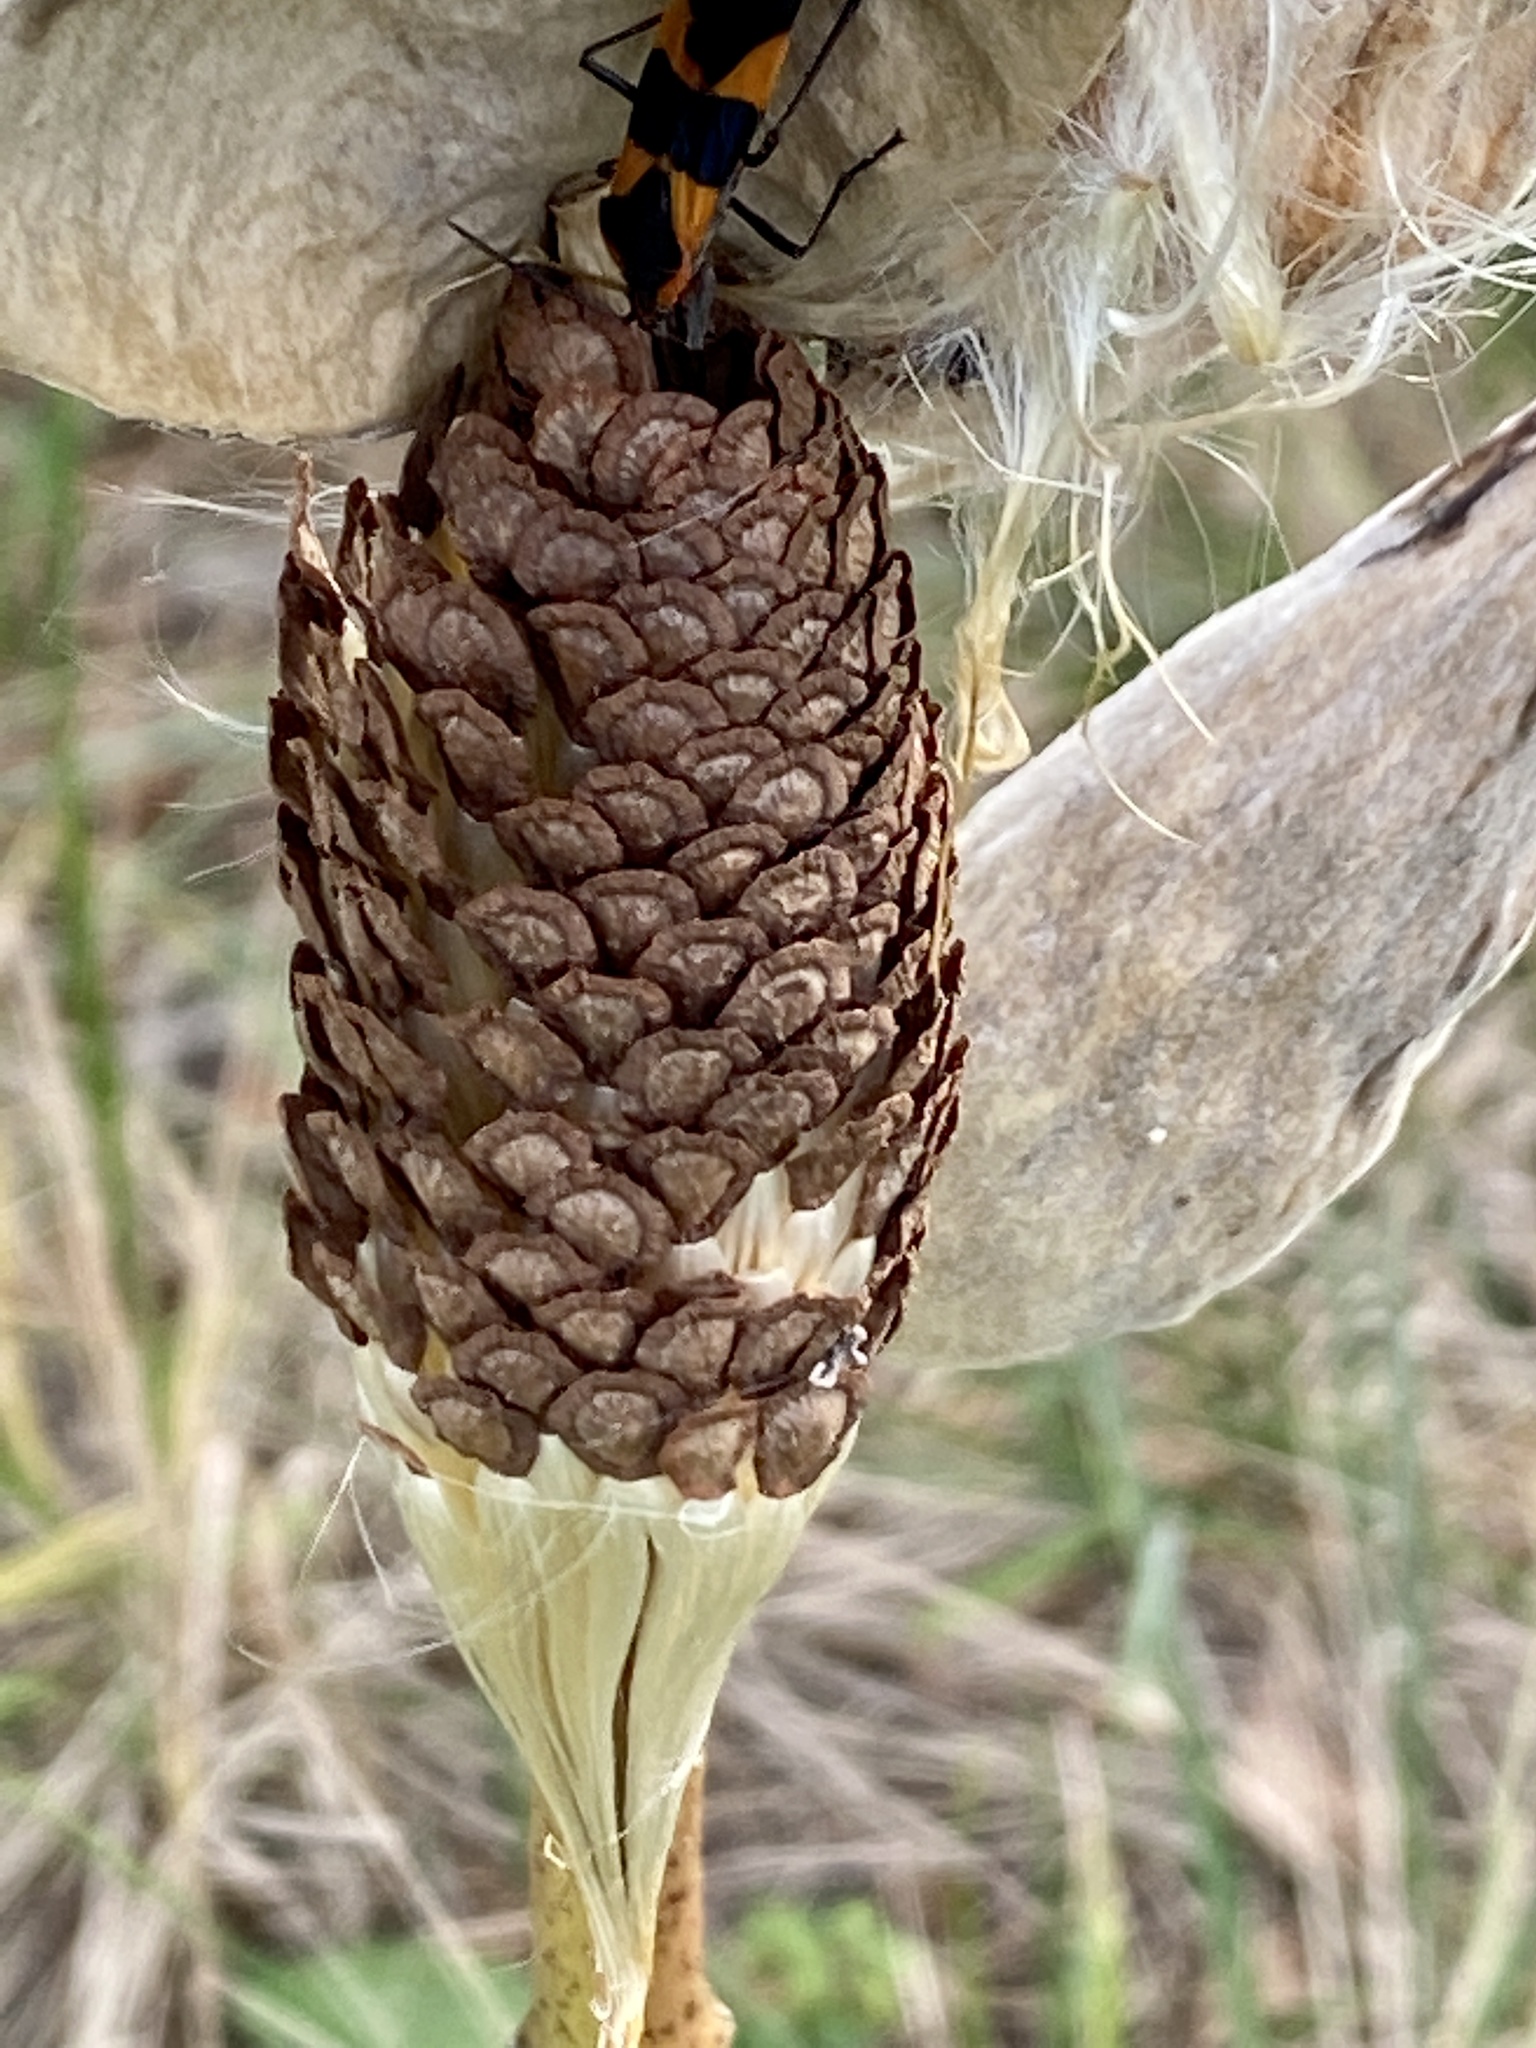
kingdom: Plantae
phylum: Tracheophyta
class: Magnoliopsida
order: Gentianales
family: Apocynaceae
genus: Asclepias
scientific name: Asclepias syriaca
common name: Common milkweed
